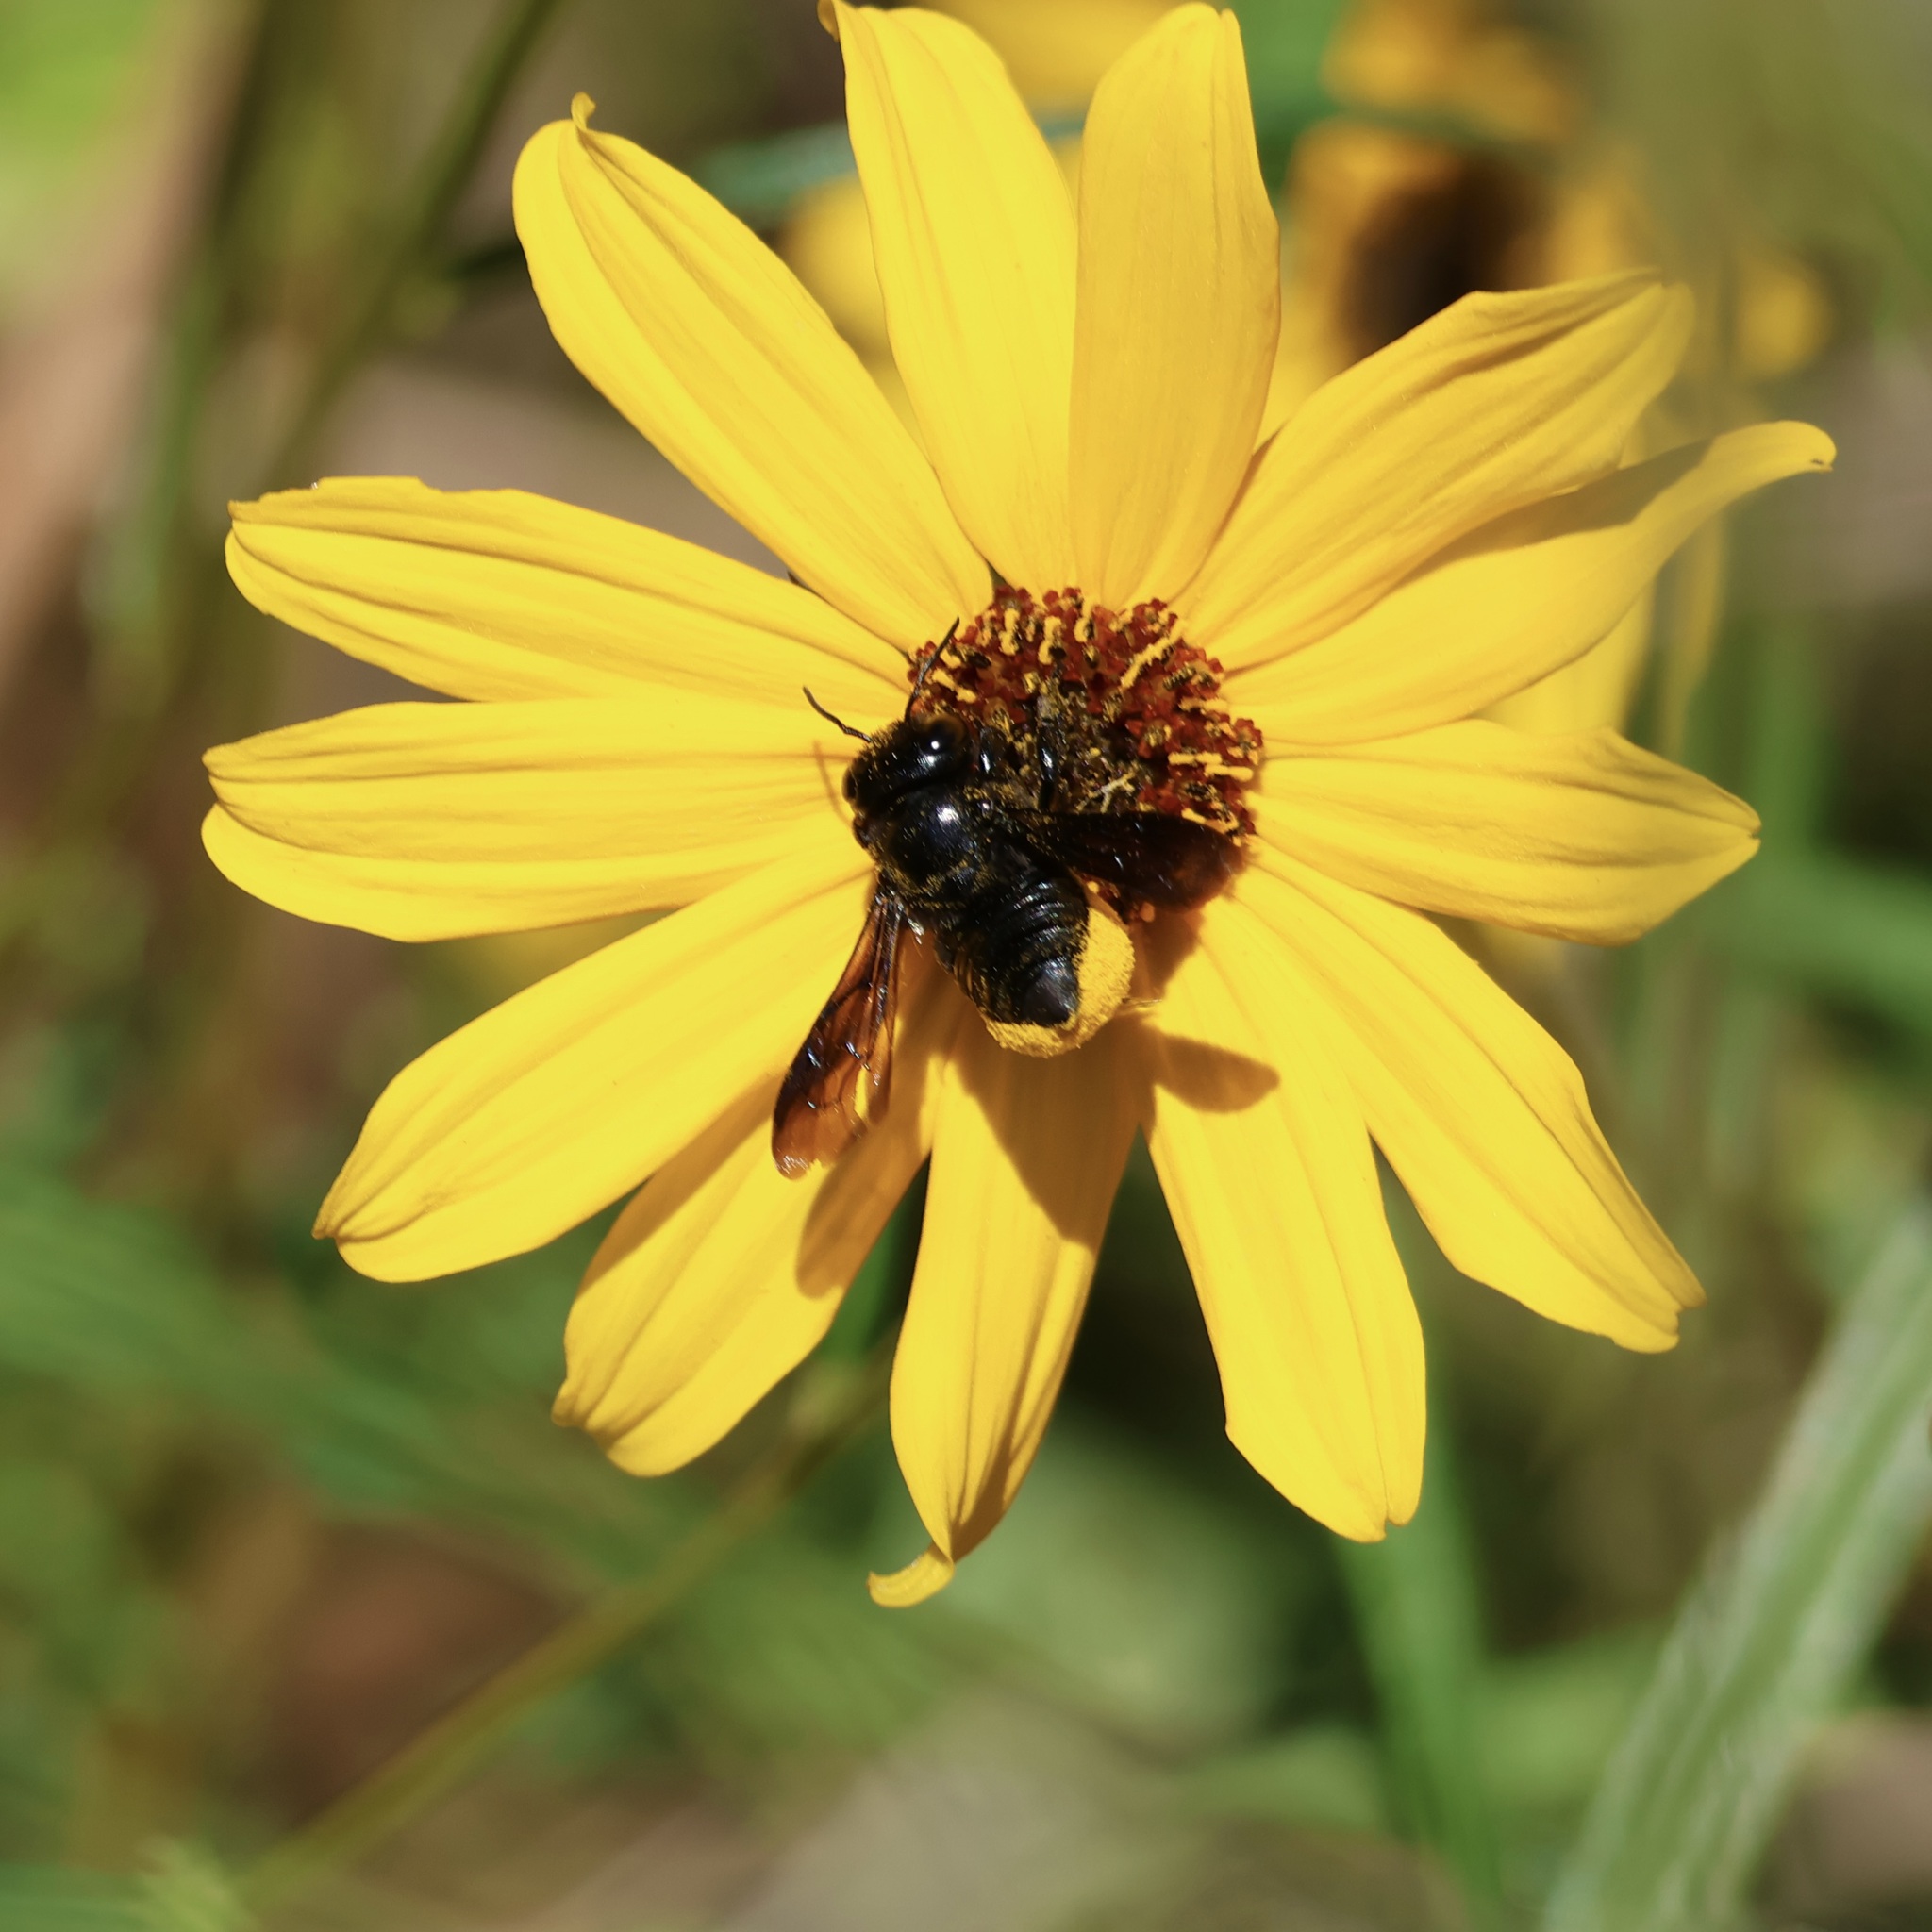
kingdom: Animalia
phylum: Arthropoda
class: Insecta
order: Hymenoptera
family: Megachilidae
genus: Megachile
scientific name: Megachile xylocopoides
